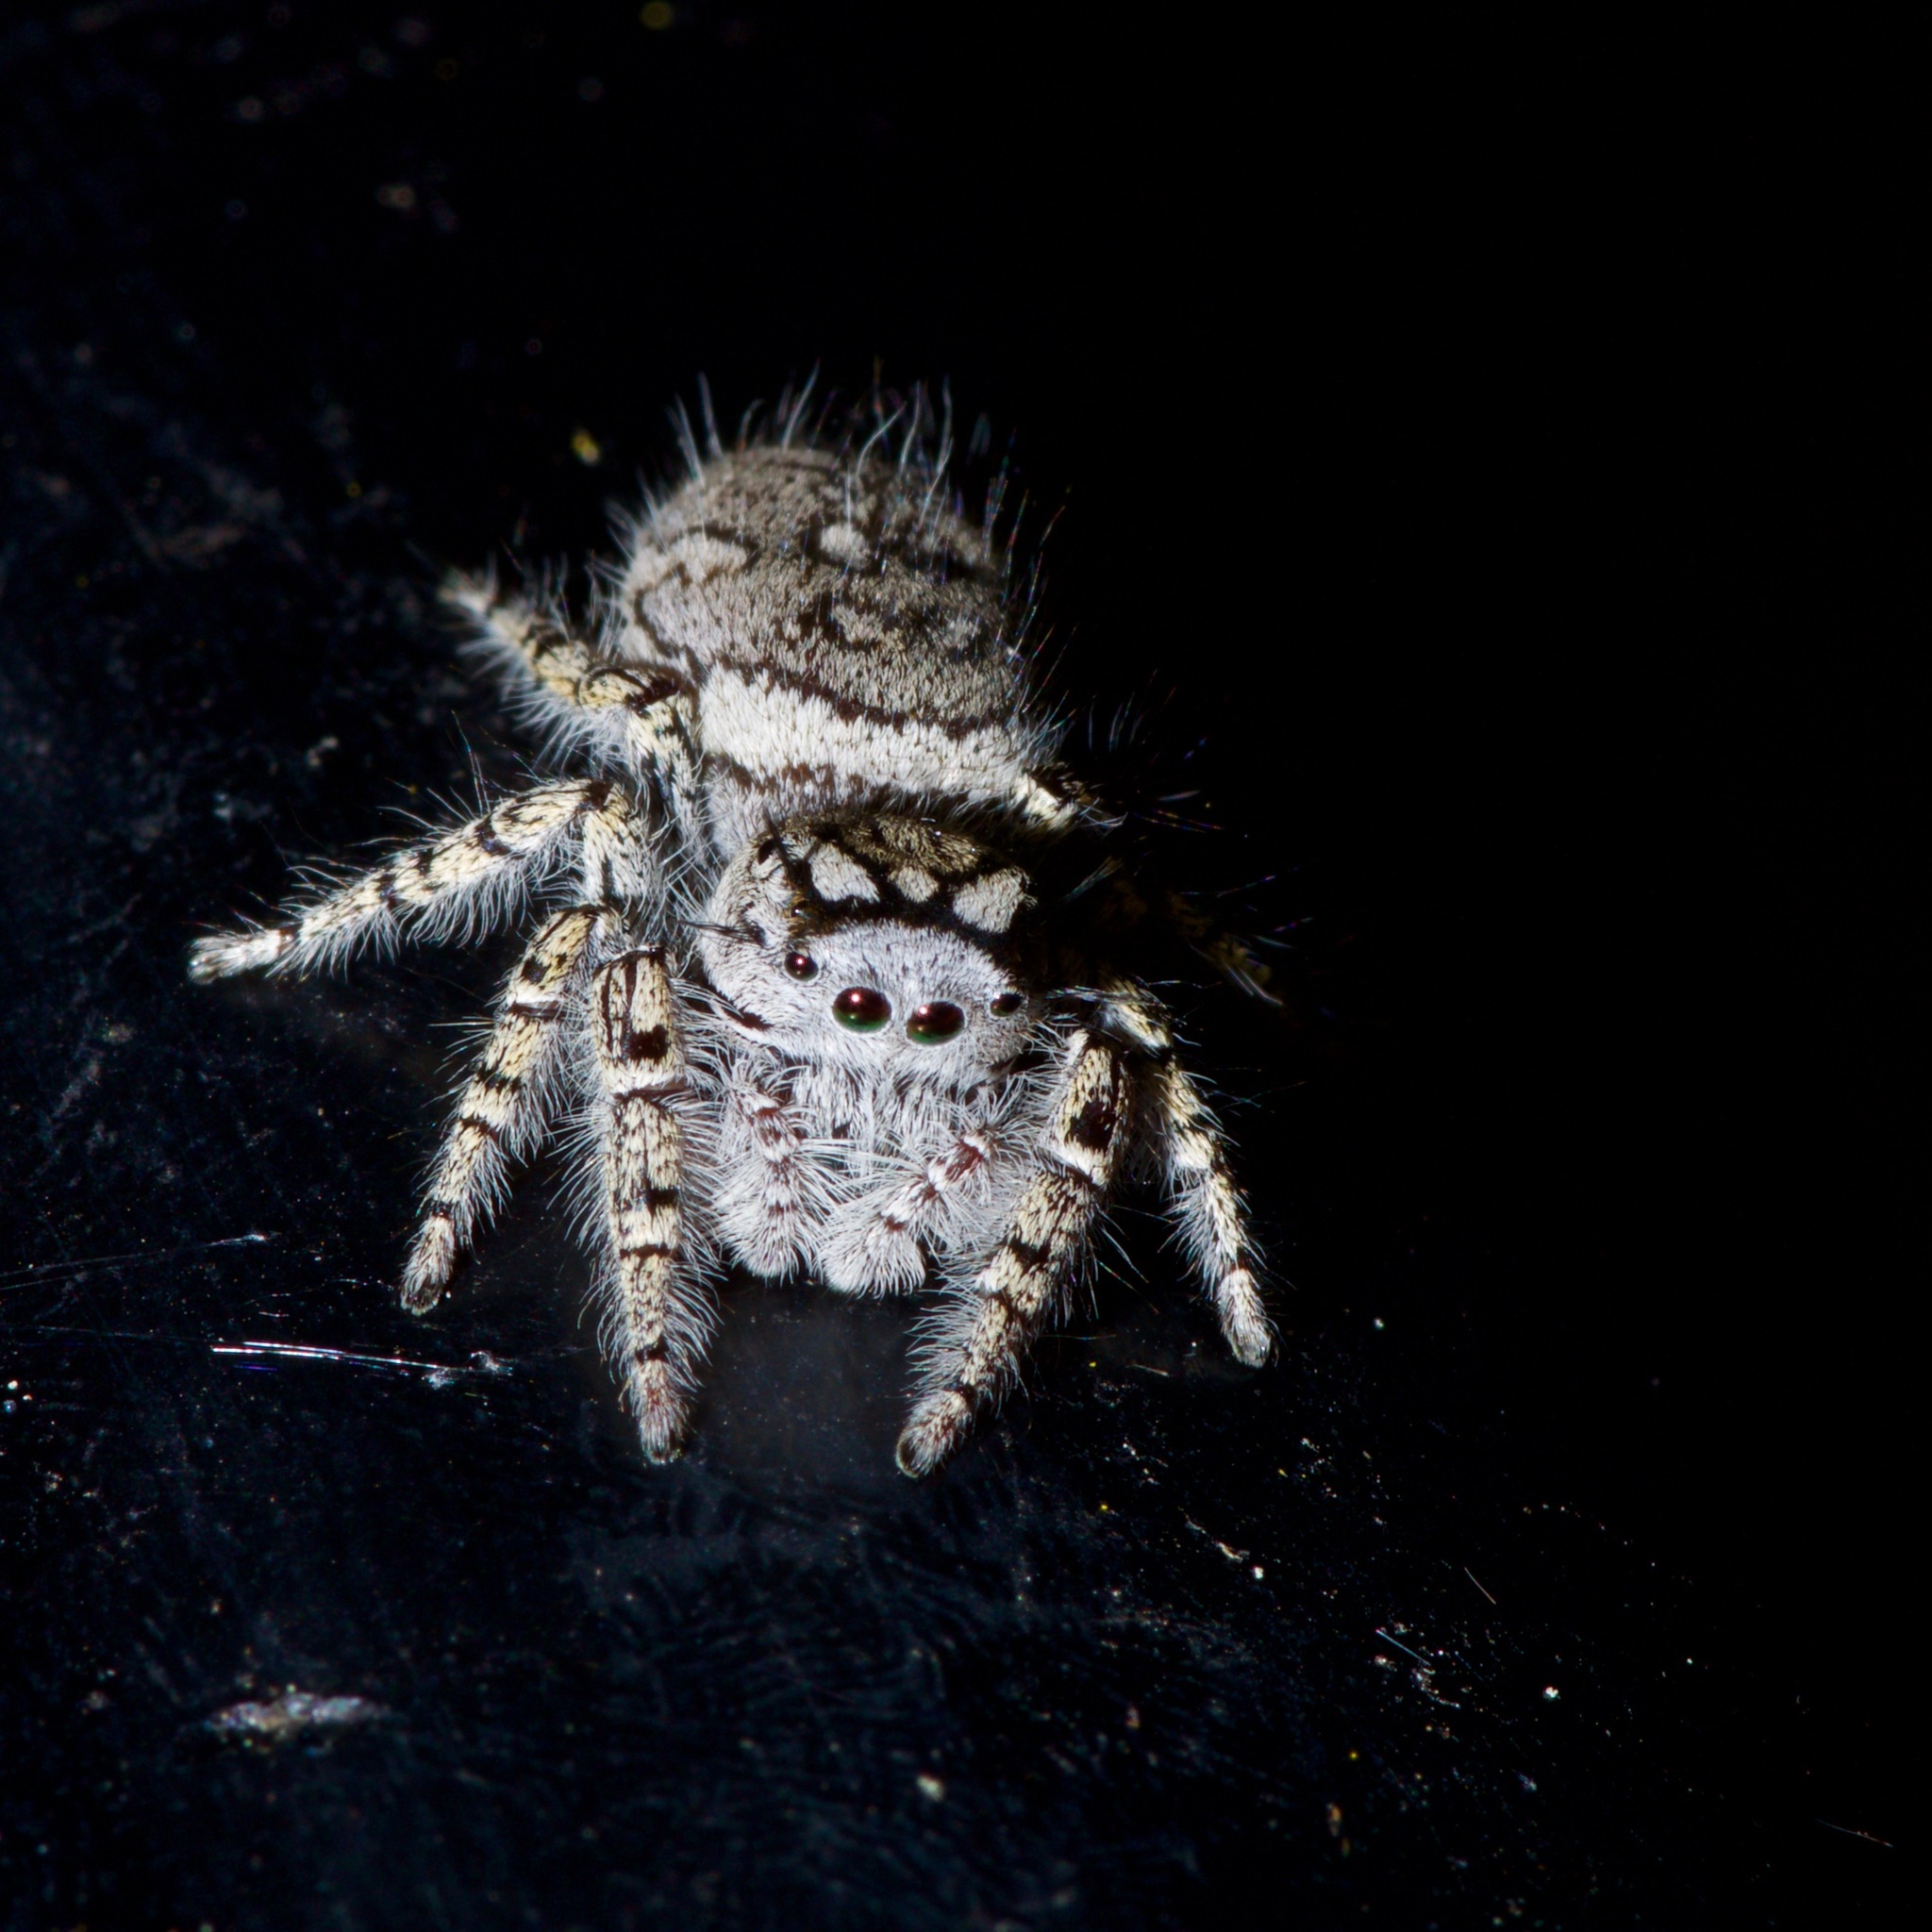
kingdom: Animalia
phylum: Arthropoda
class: Arachnida
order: Araneae
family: Salticidae
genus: Phidippus
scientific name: Phidippus mystaceus
